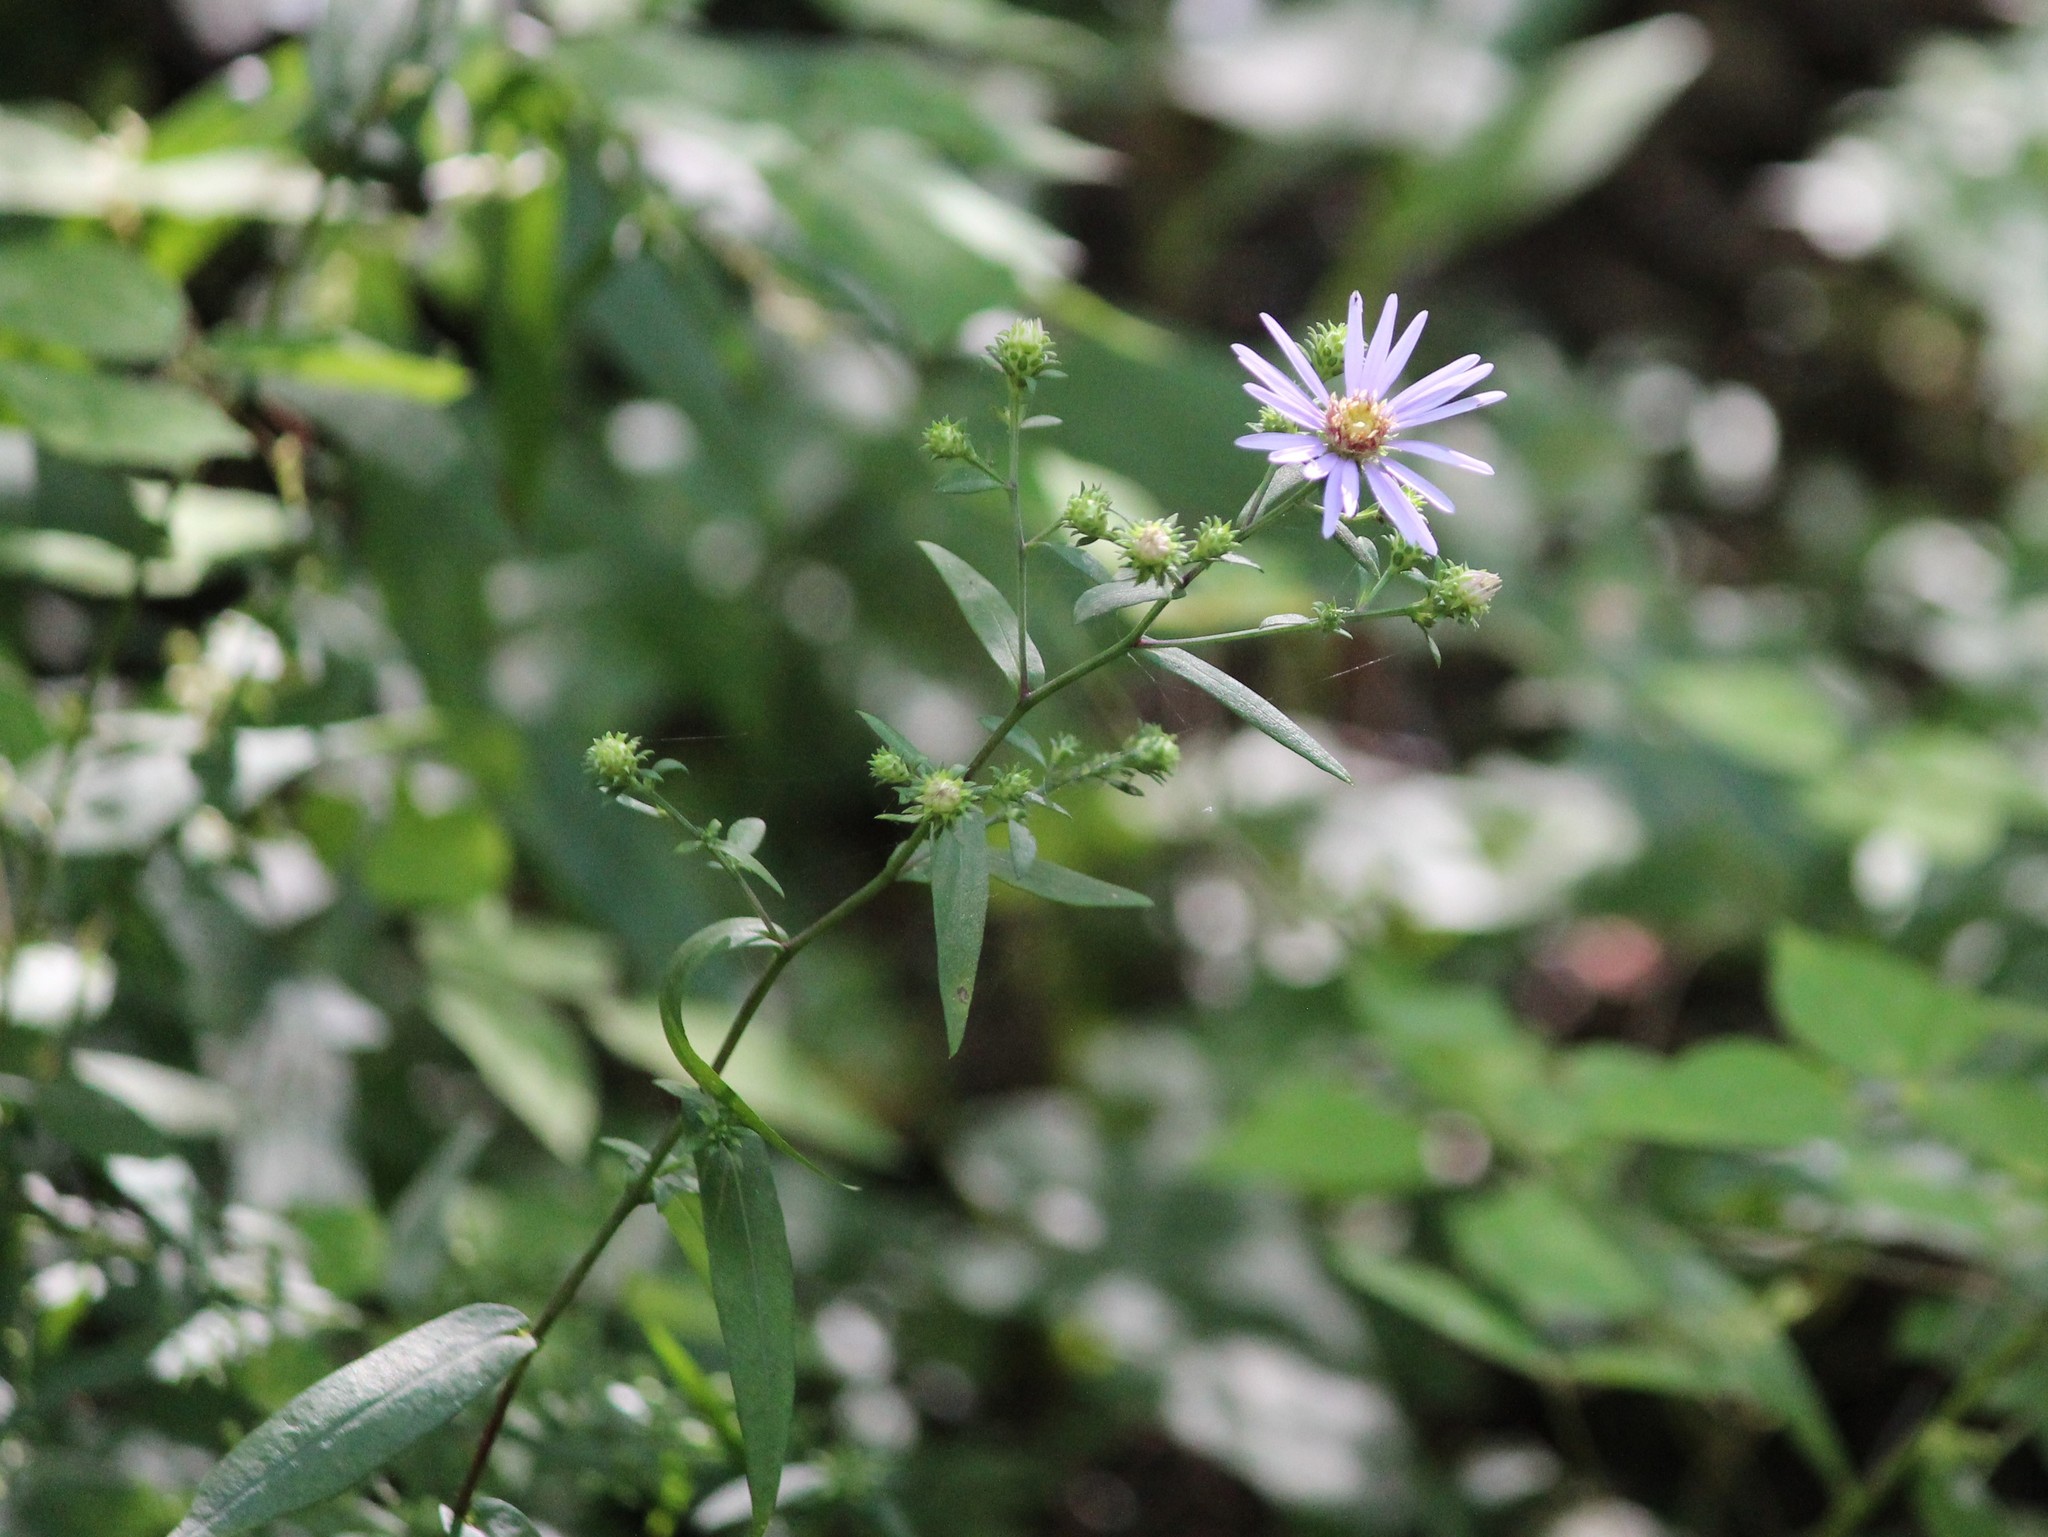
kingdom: Plantae
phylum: Tracheophyta
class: Magnoliopsida
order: Asterales
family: Asteraceae
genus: Symphyotrichum
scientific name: Symphyotrichum retroflexum
